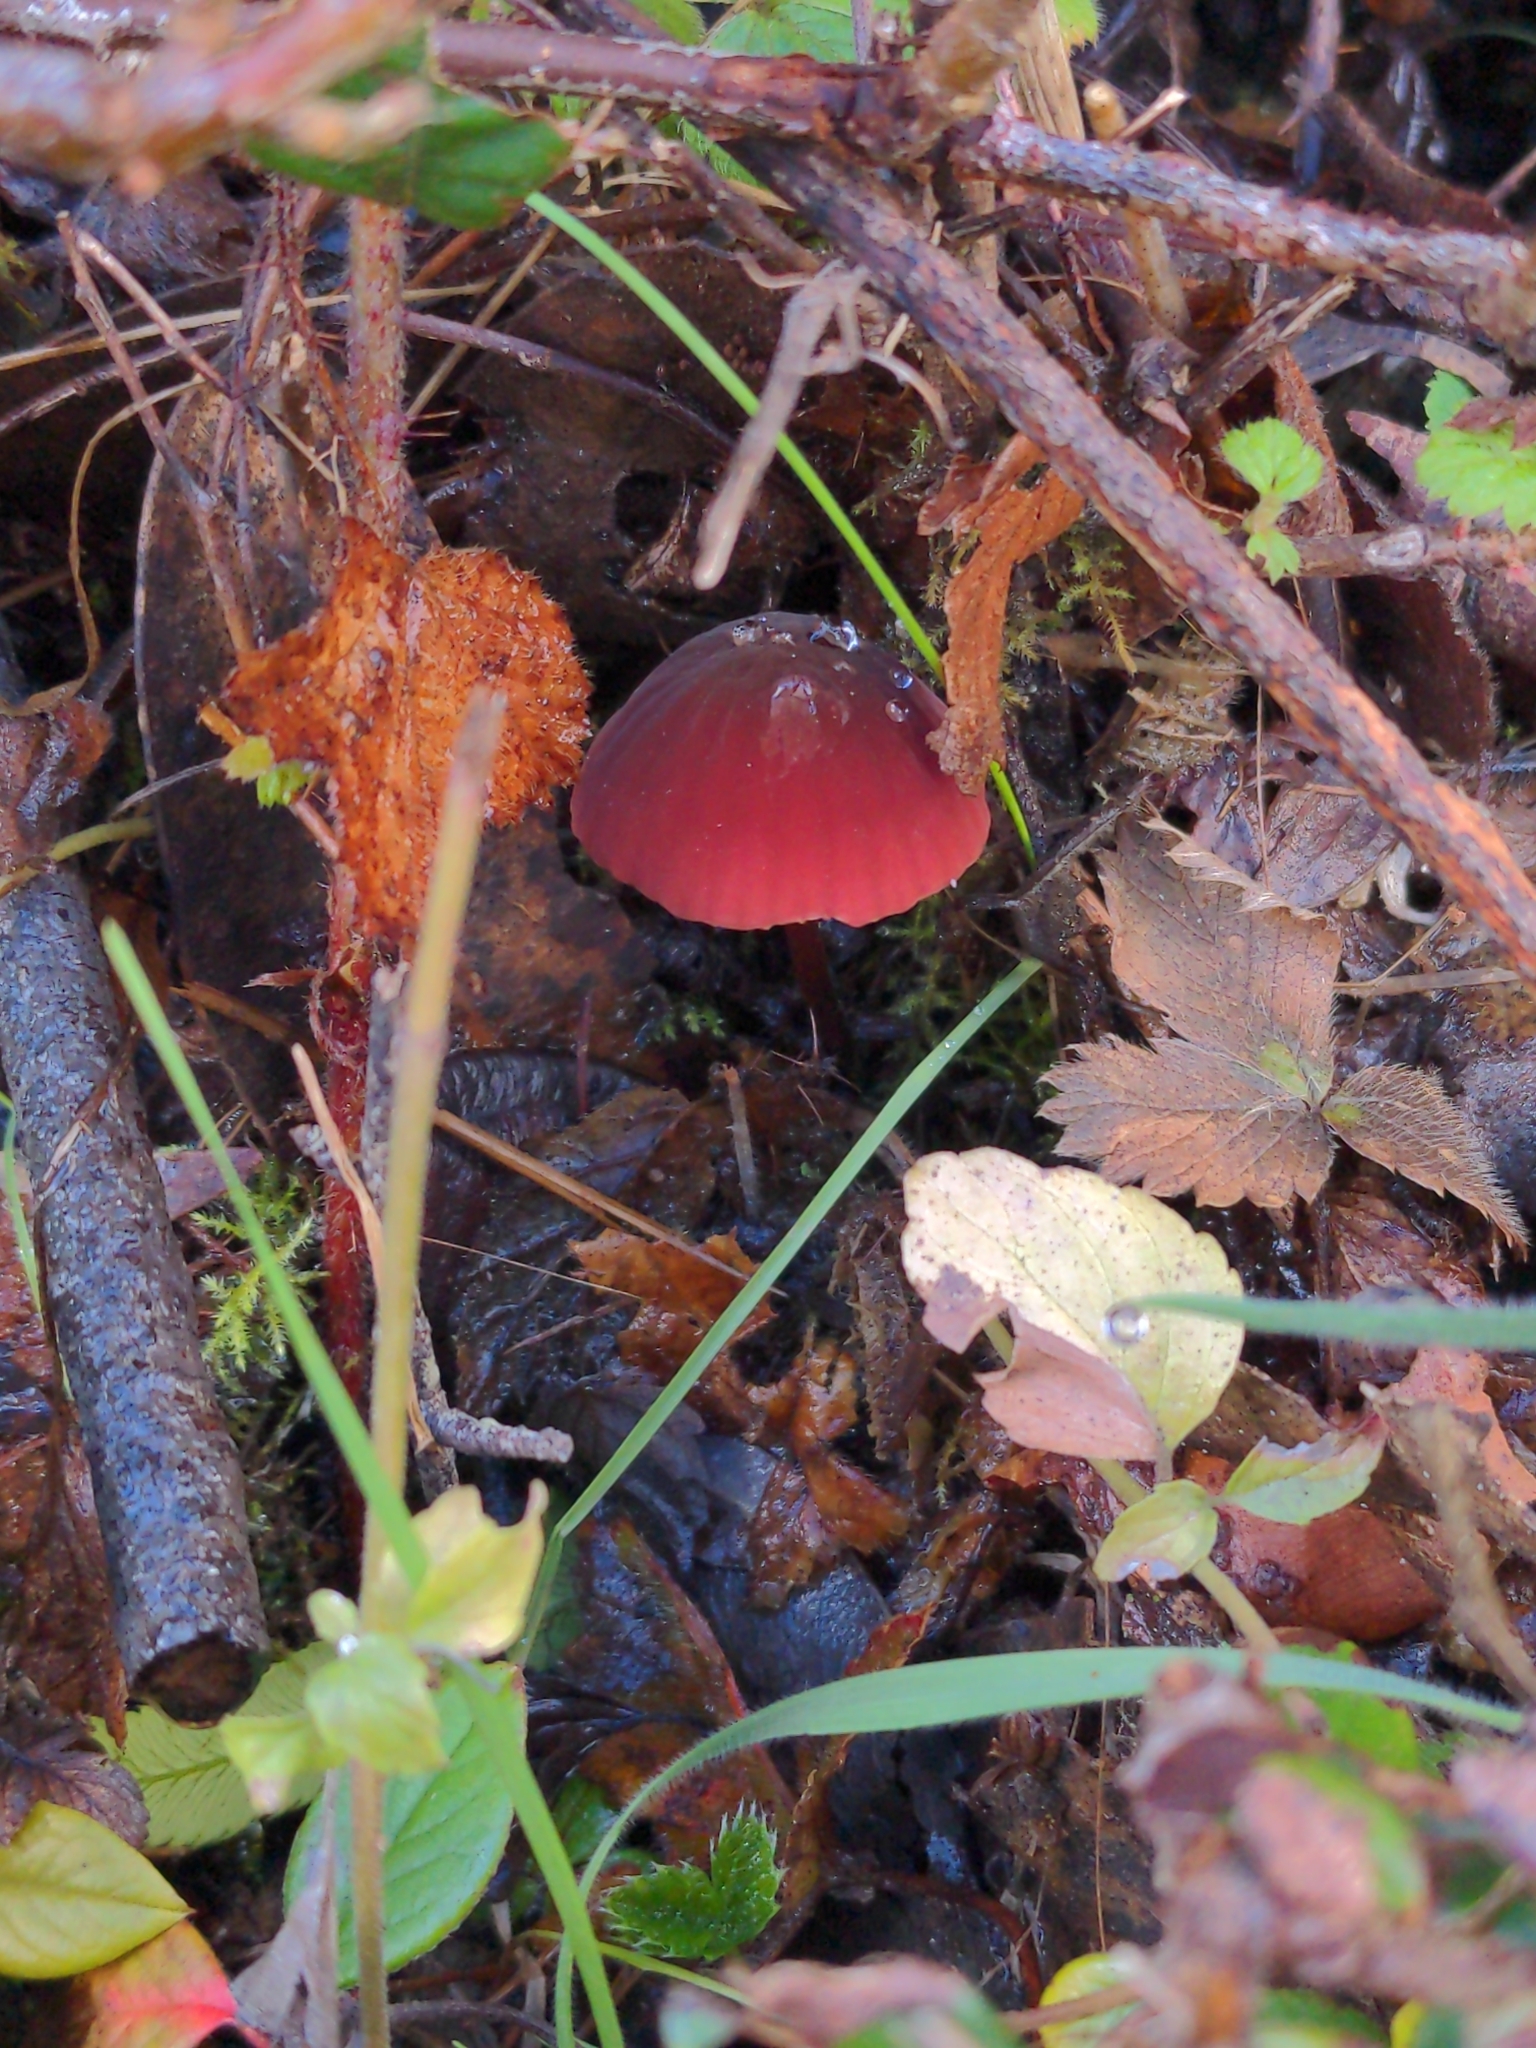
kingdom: Fungi
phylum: Basidiomycota
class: Agaricomycetes
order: Agaricales
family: Marasmiaceae
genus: Marasmius
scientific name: Marasmius plicatulus
